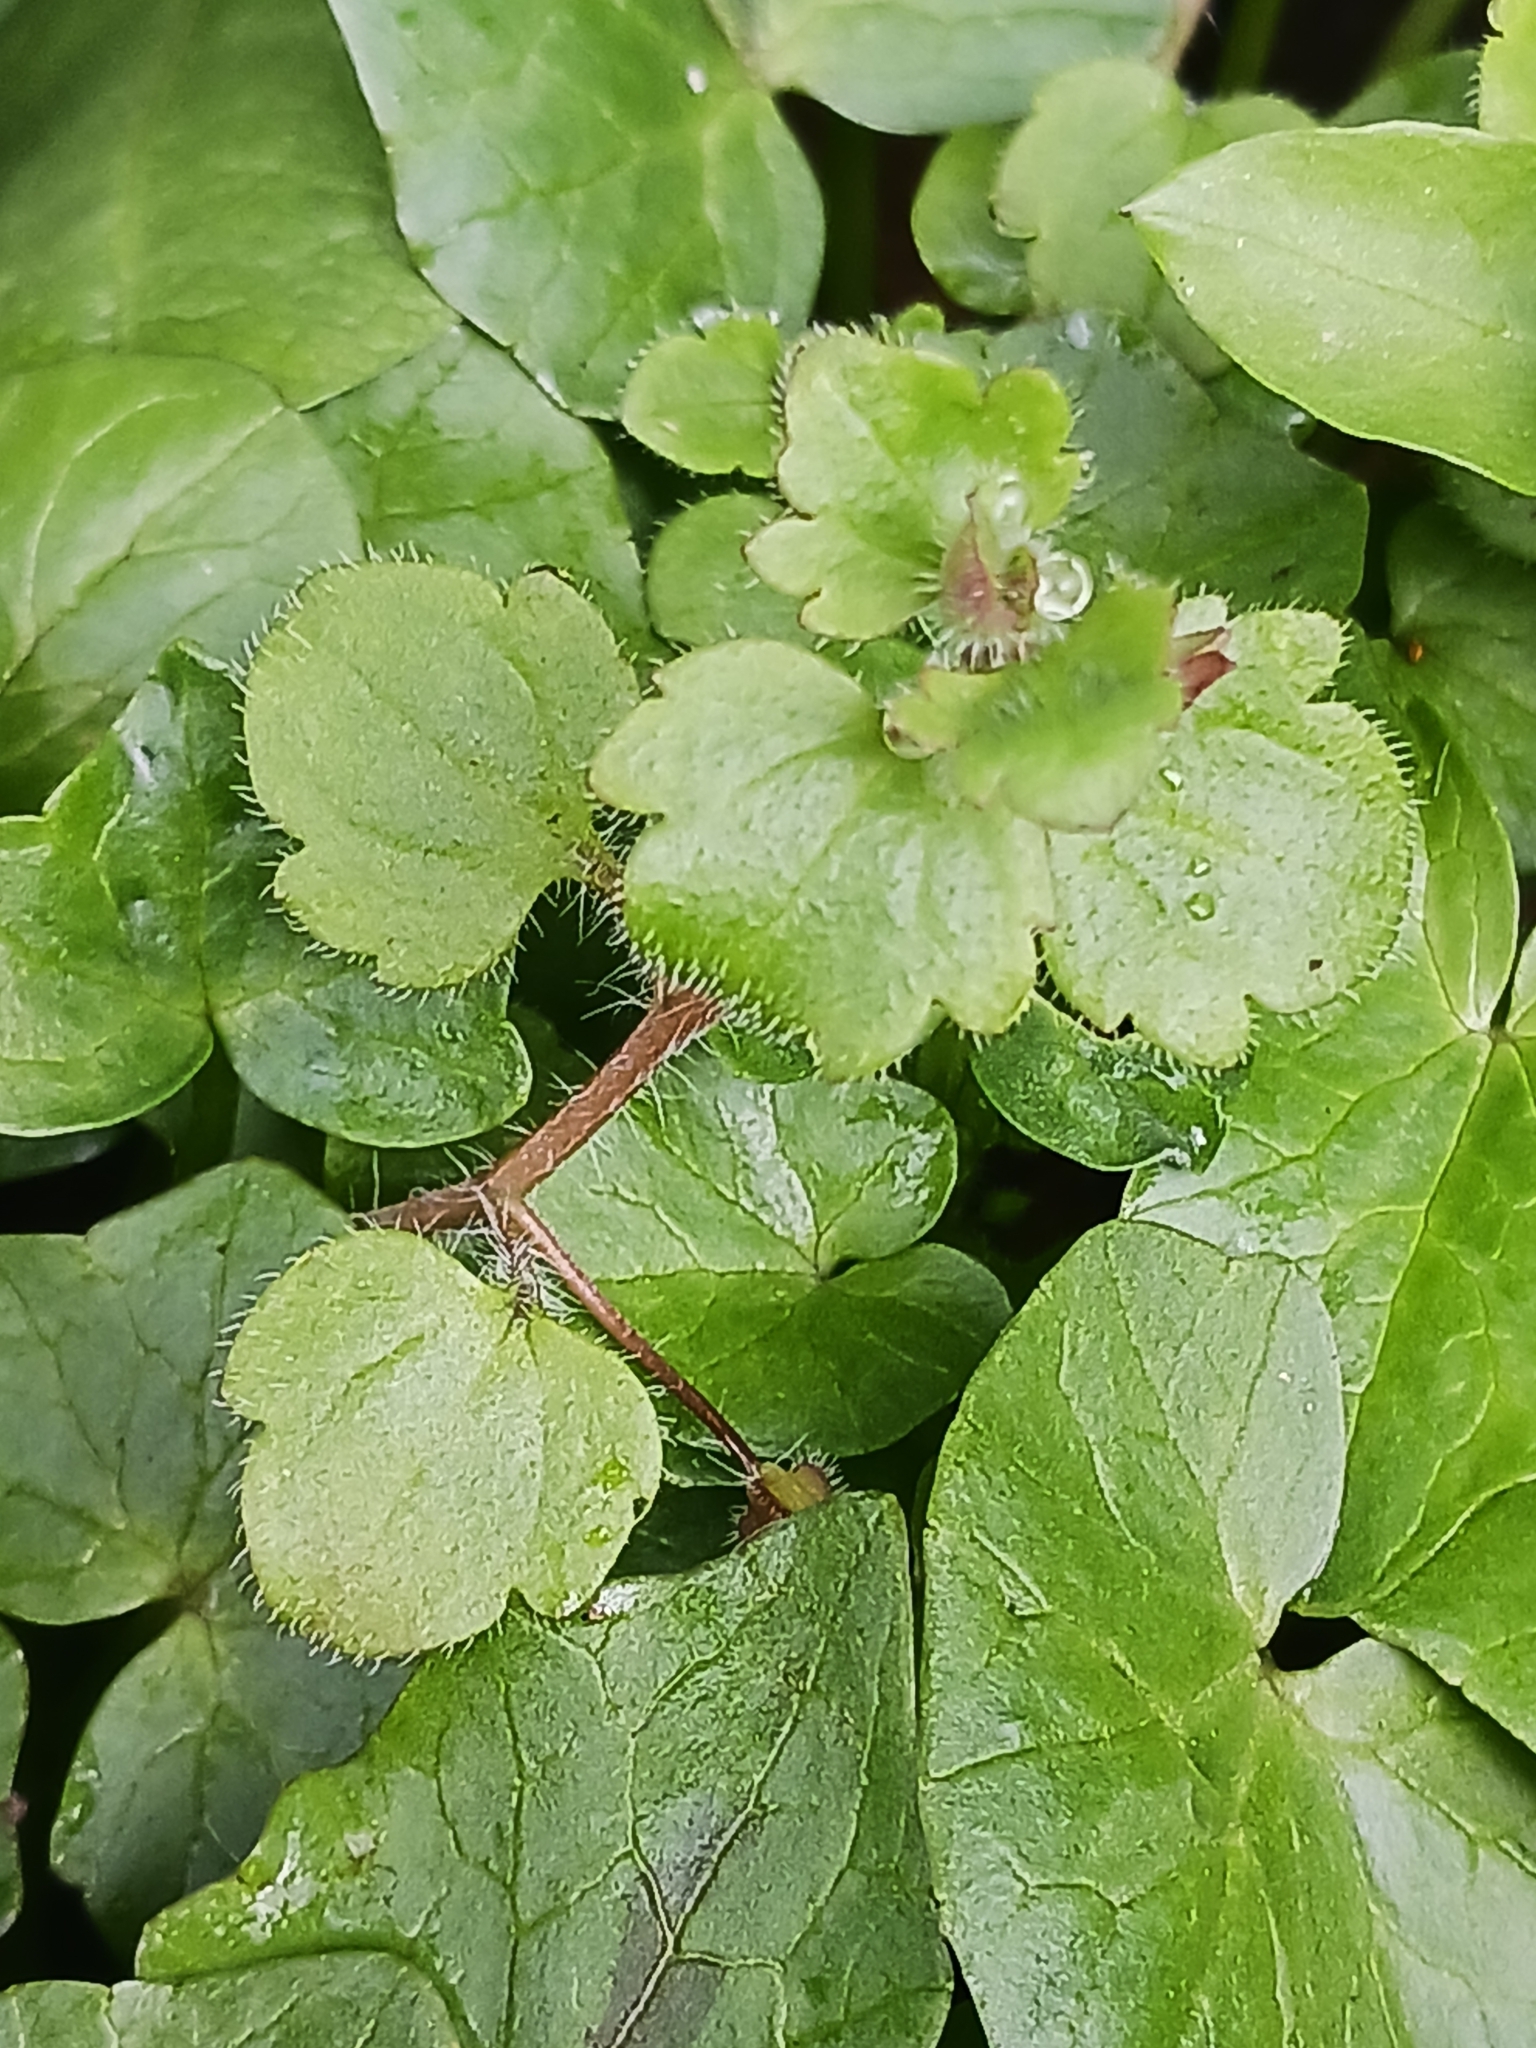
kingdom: Plantae
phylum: Tracheophyta
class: Magnoliopsida
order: Lamiales
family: Plantaginaceae
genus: Veronica
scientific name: Veronica sublobata
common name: False ivy-leaved speedwell
